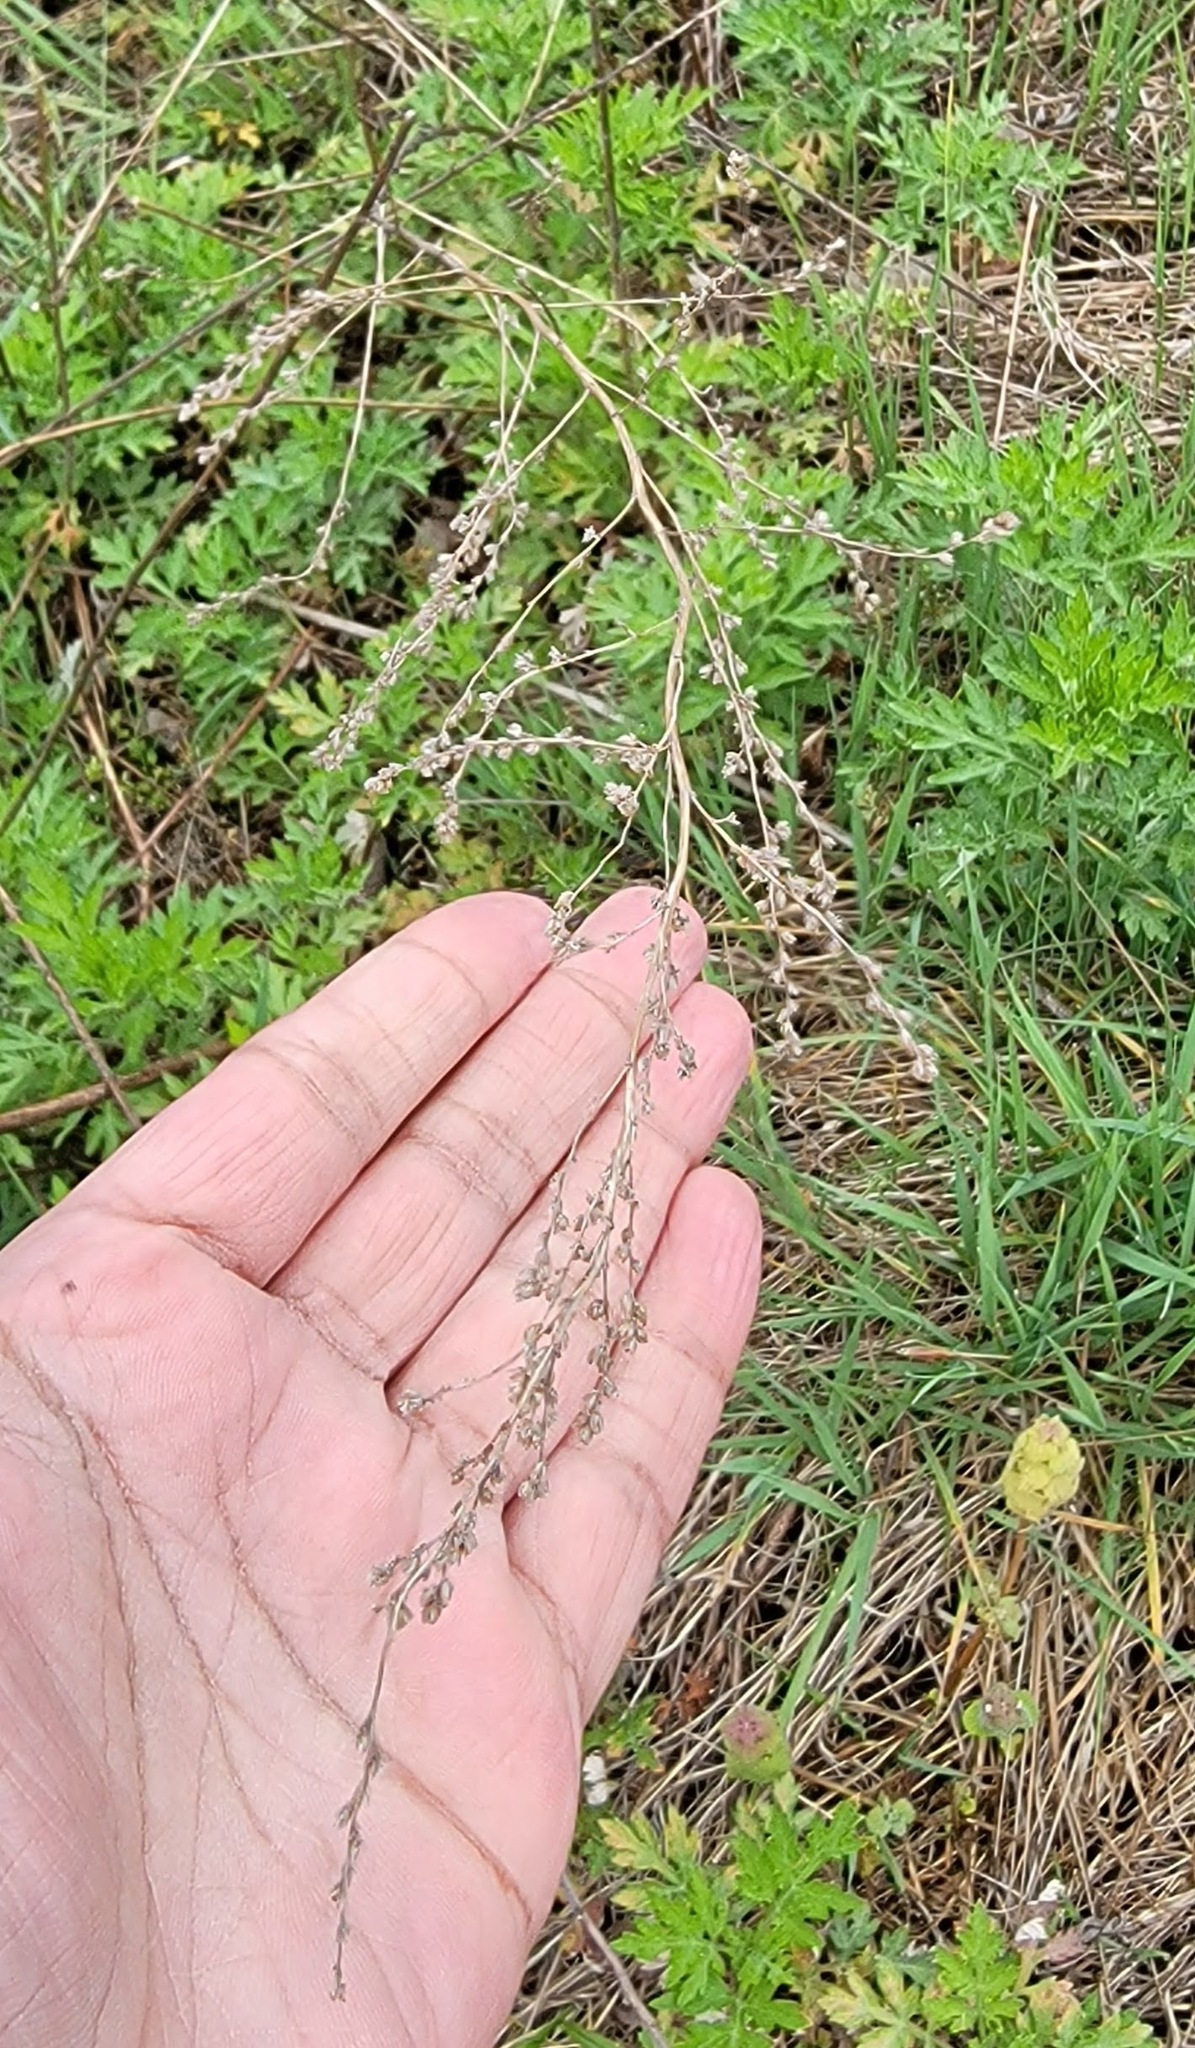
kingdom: Plantae
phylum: Tracheophyta
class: Magnoliopsida
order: Asterales
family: Asteraceae
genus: Artemisia
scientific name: Artemisia vulgaris
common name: Mugwort
